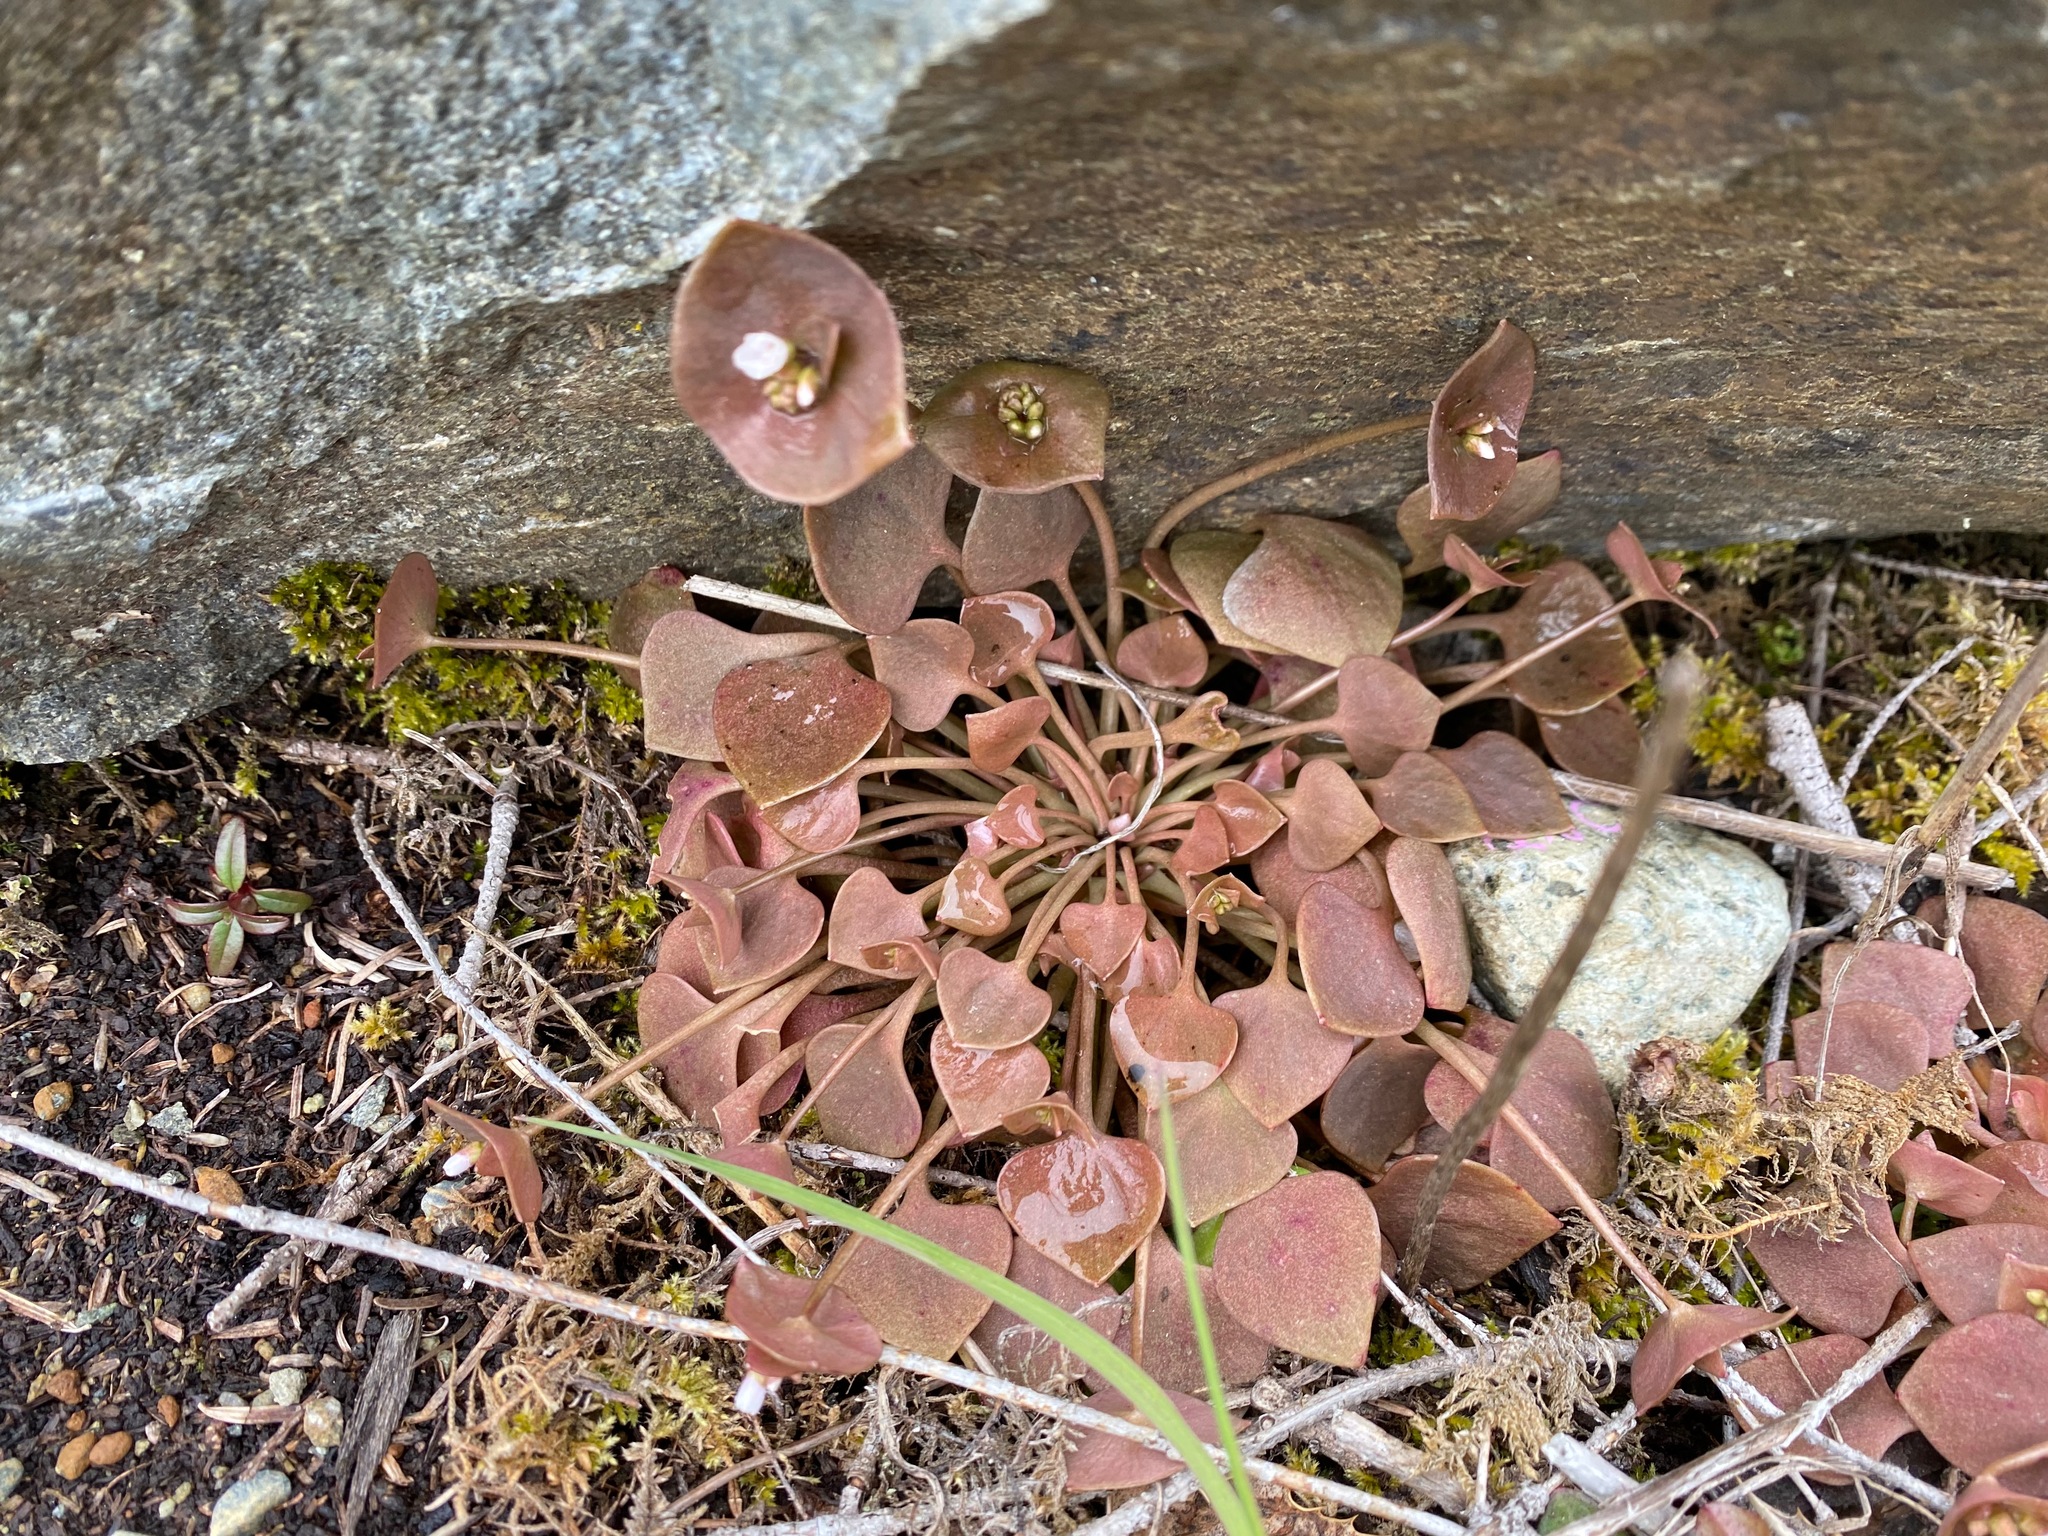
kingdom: Plantae
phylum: Tracheophyta
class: Magnoliopsida
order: Caryophyllales
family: Montiaceae
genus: Claytonia
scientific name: Claytonia rubra
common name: Erubescent miner's-lettuce
